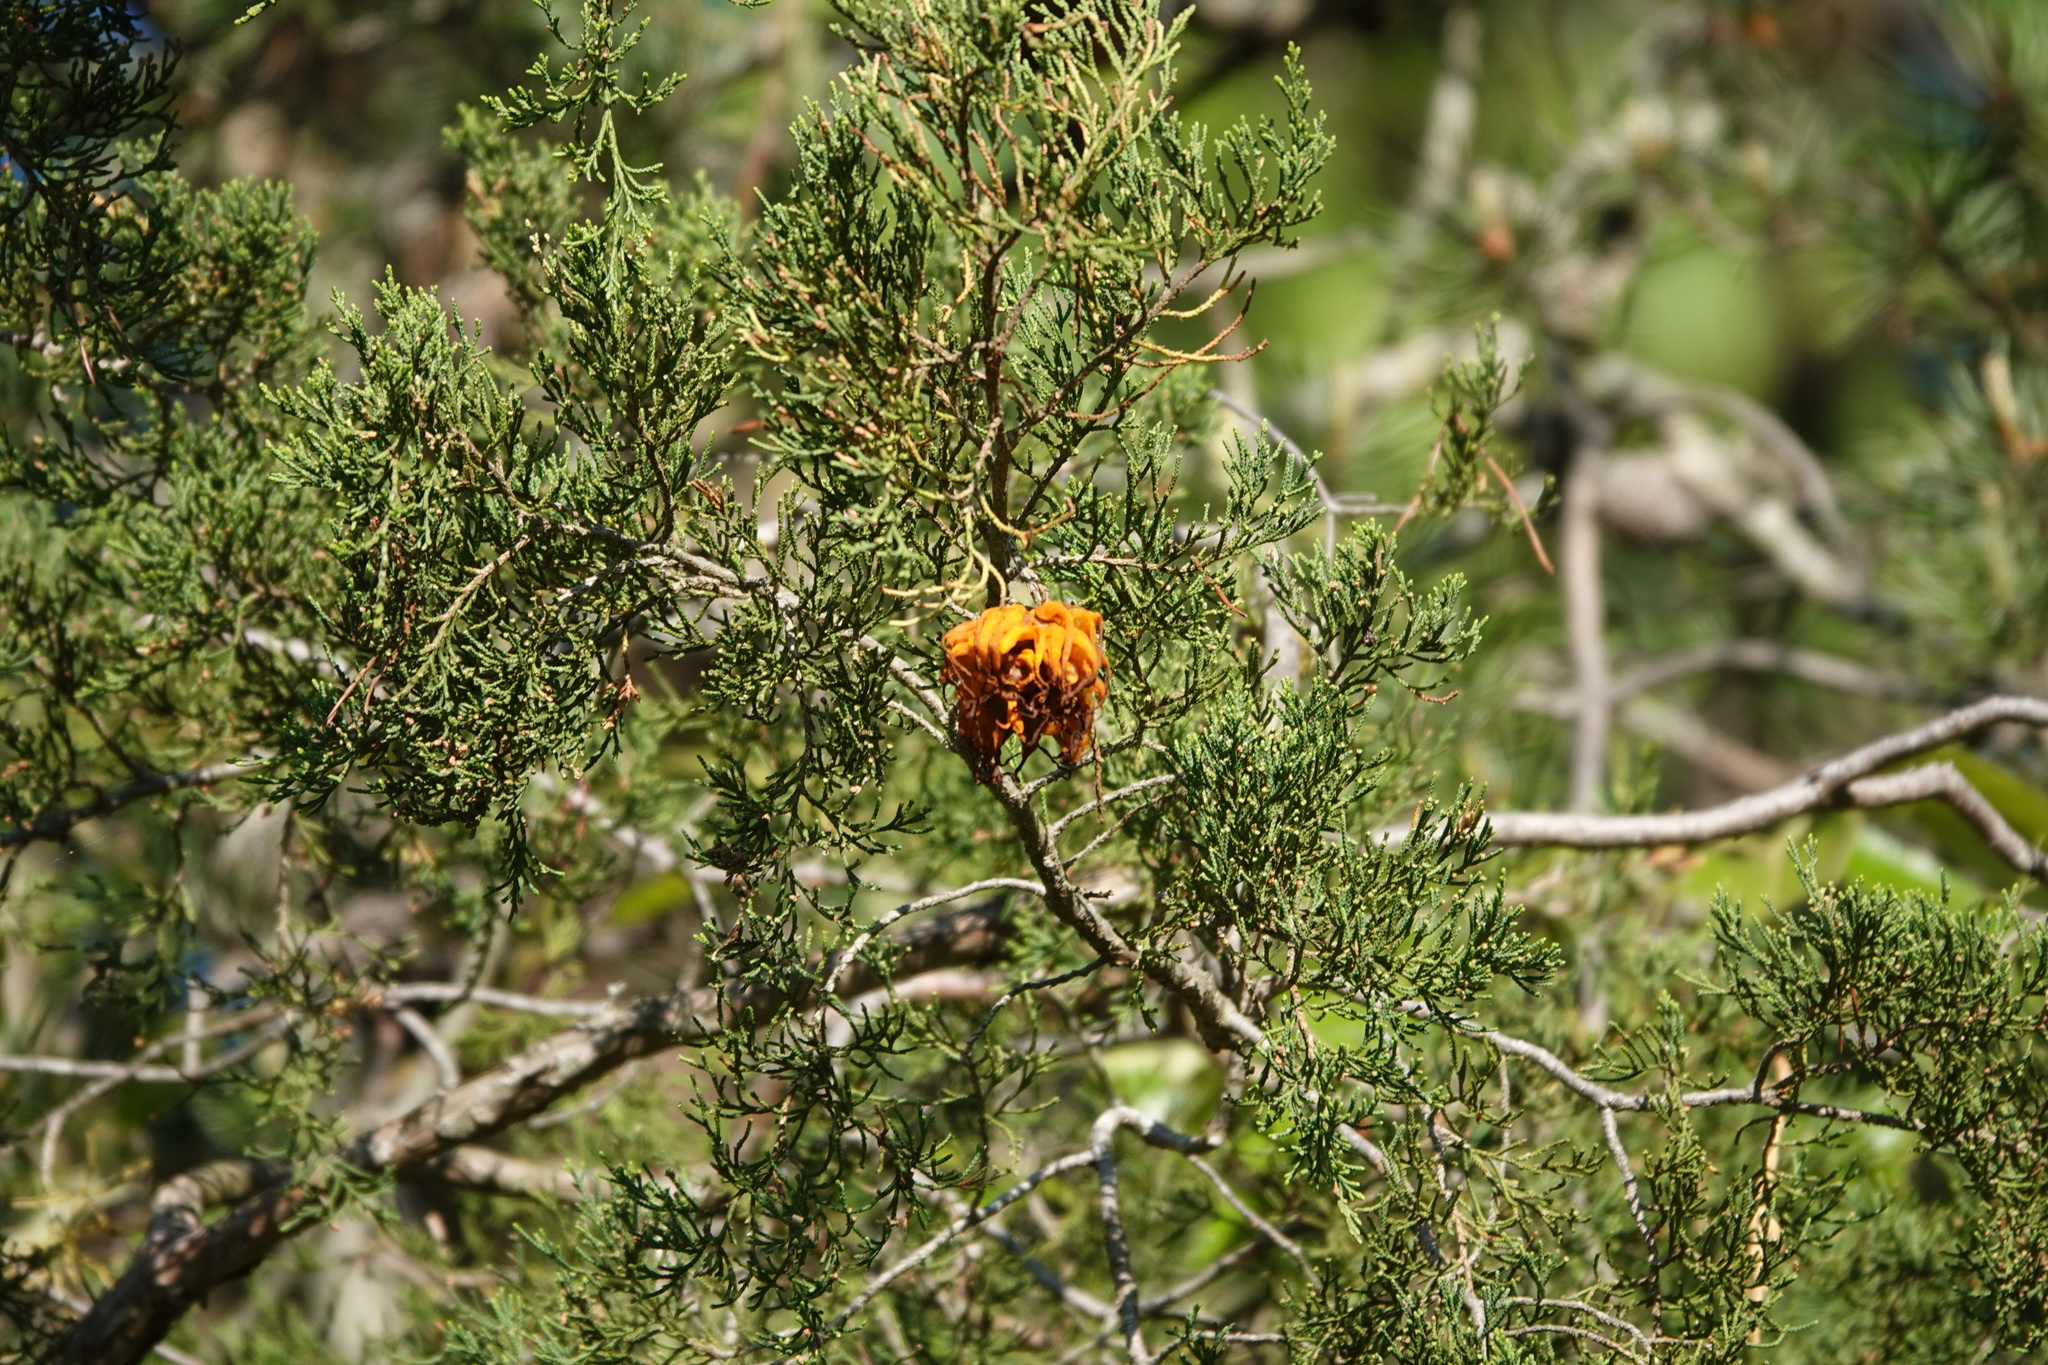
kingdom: Fungi
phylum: Basidiomycota
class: Pucciniomycetes
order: Pucciniales
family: Gymnosporangiaceae
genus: Gymnosporangium
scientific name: Gymnosporangium juniperi-virginianae
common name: Juniper-apple rust
